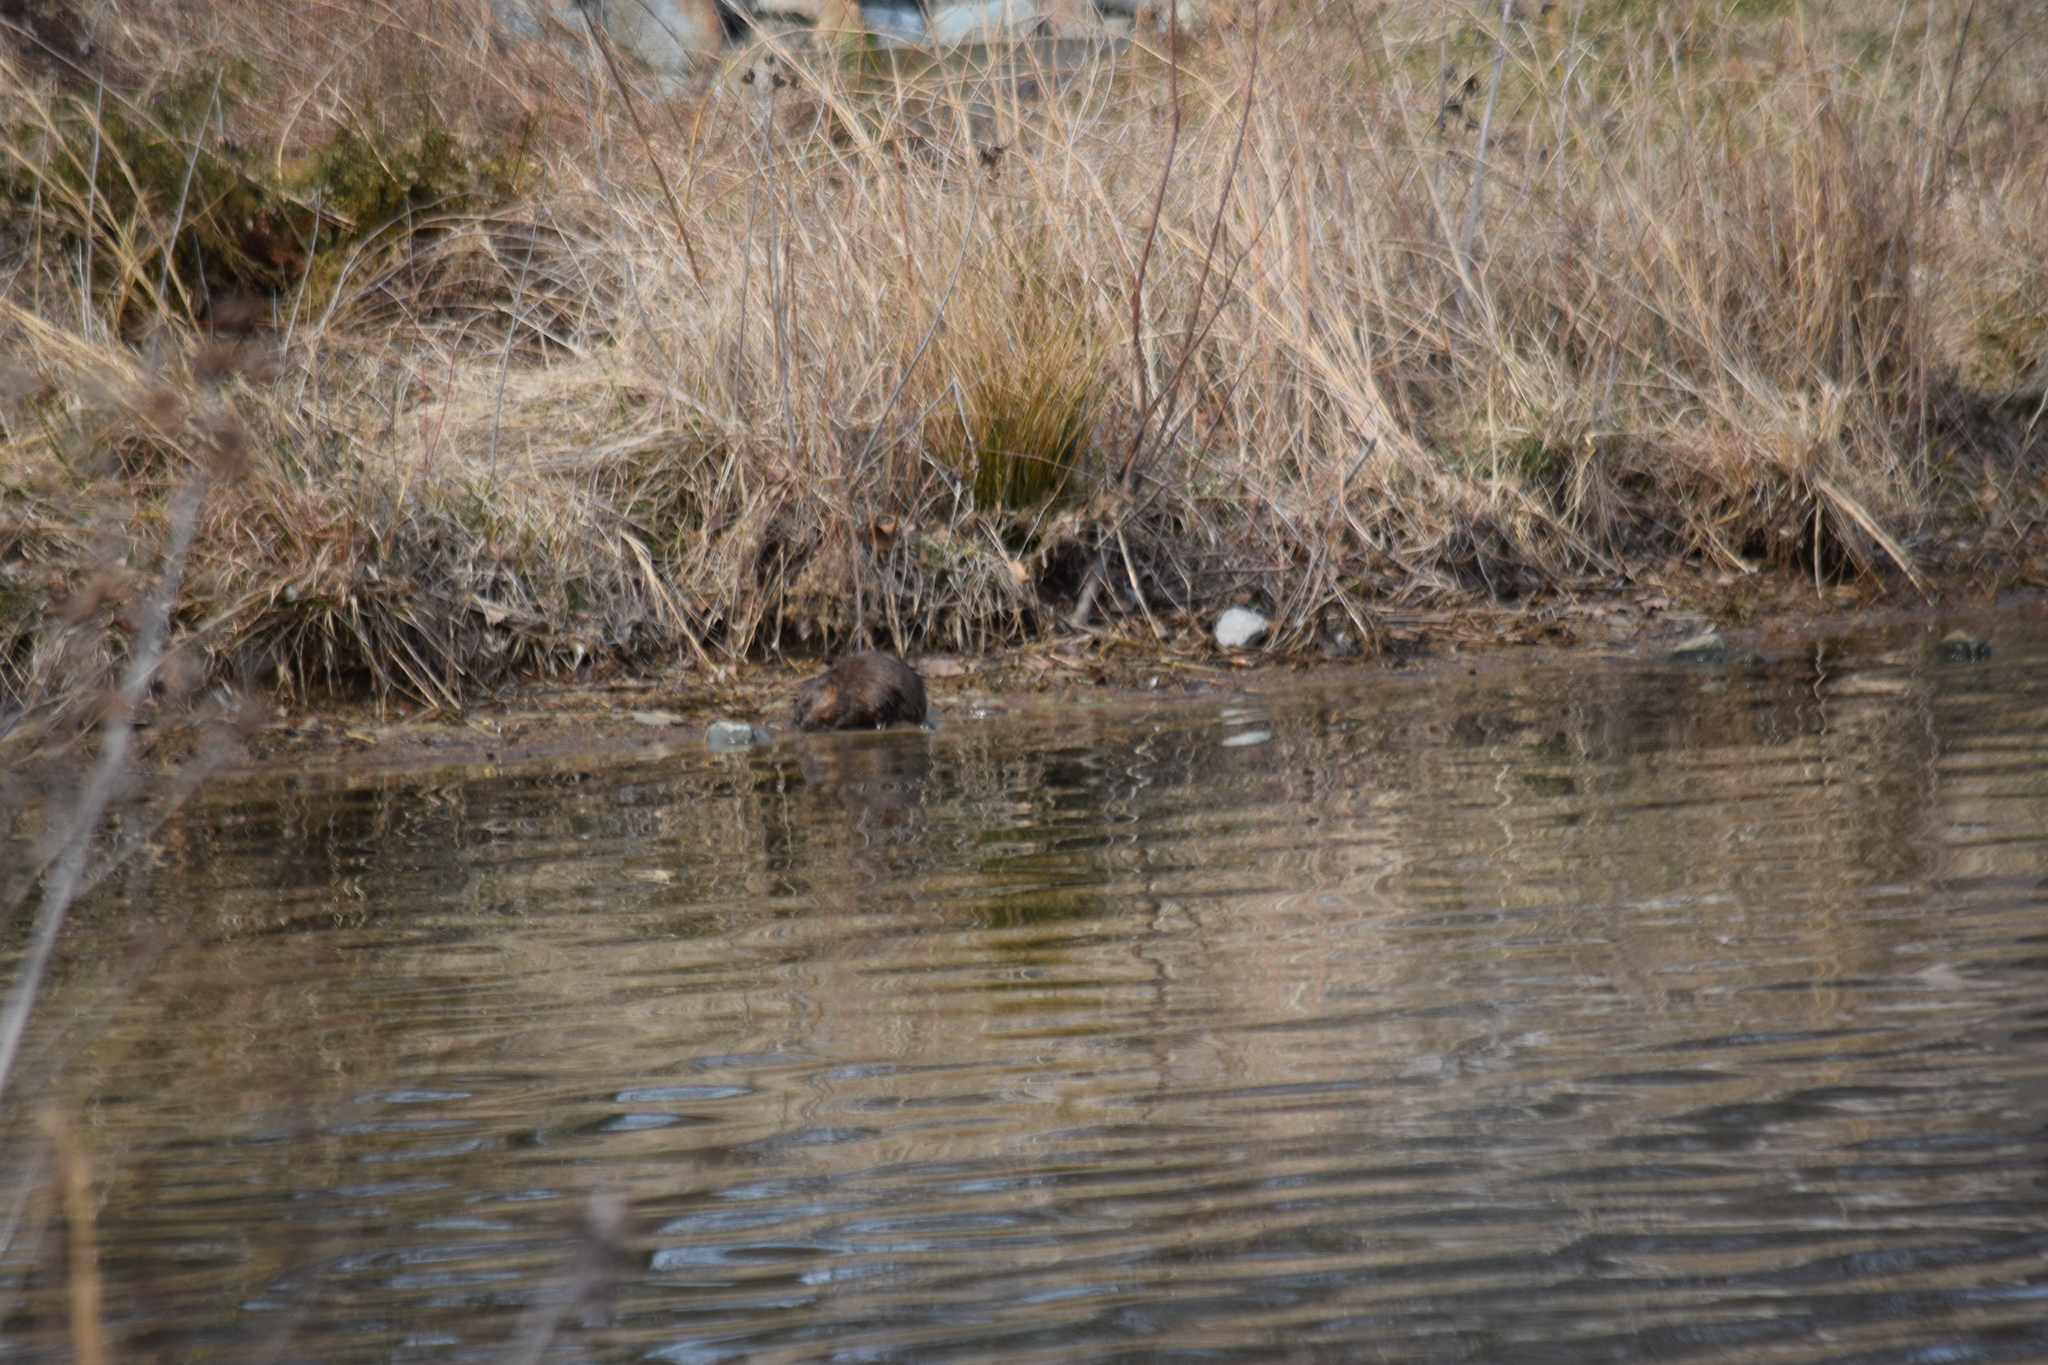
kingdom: Animalia
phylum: Chordata
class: Mammalia
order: Rodentia
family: Cricetidae
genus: Ondatra
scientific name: Ondatra zibethicus
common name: Muskrat
